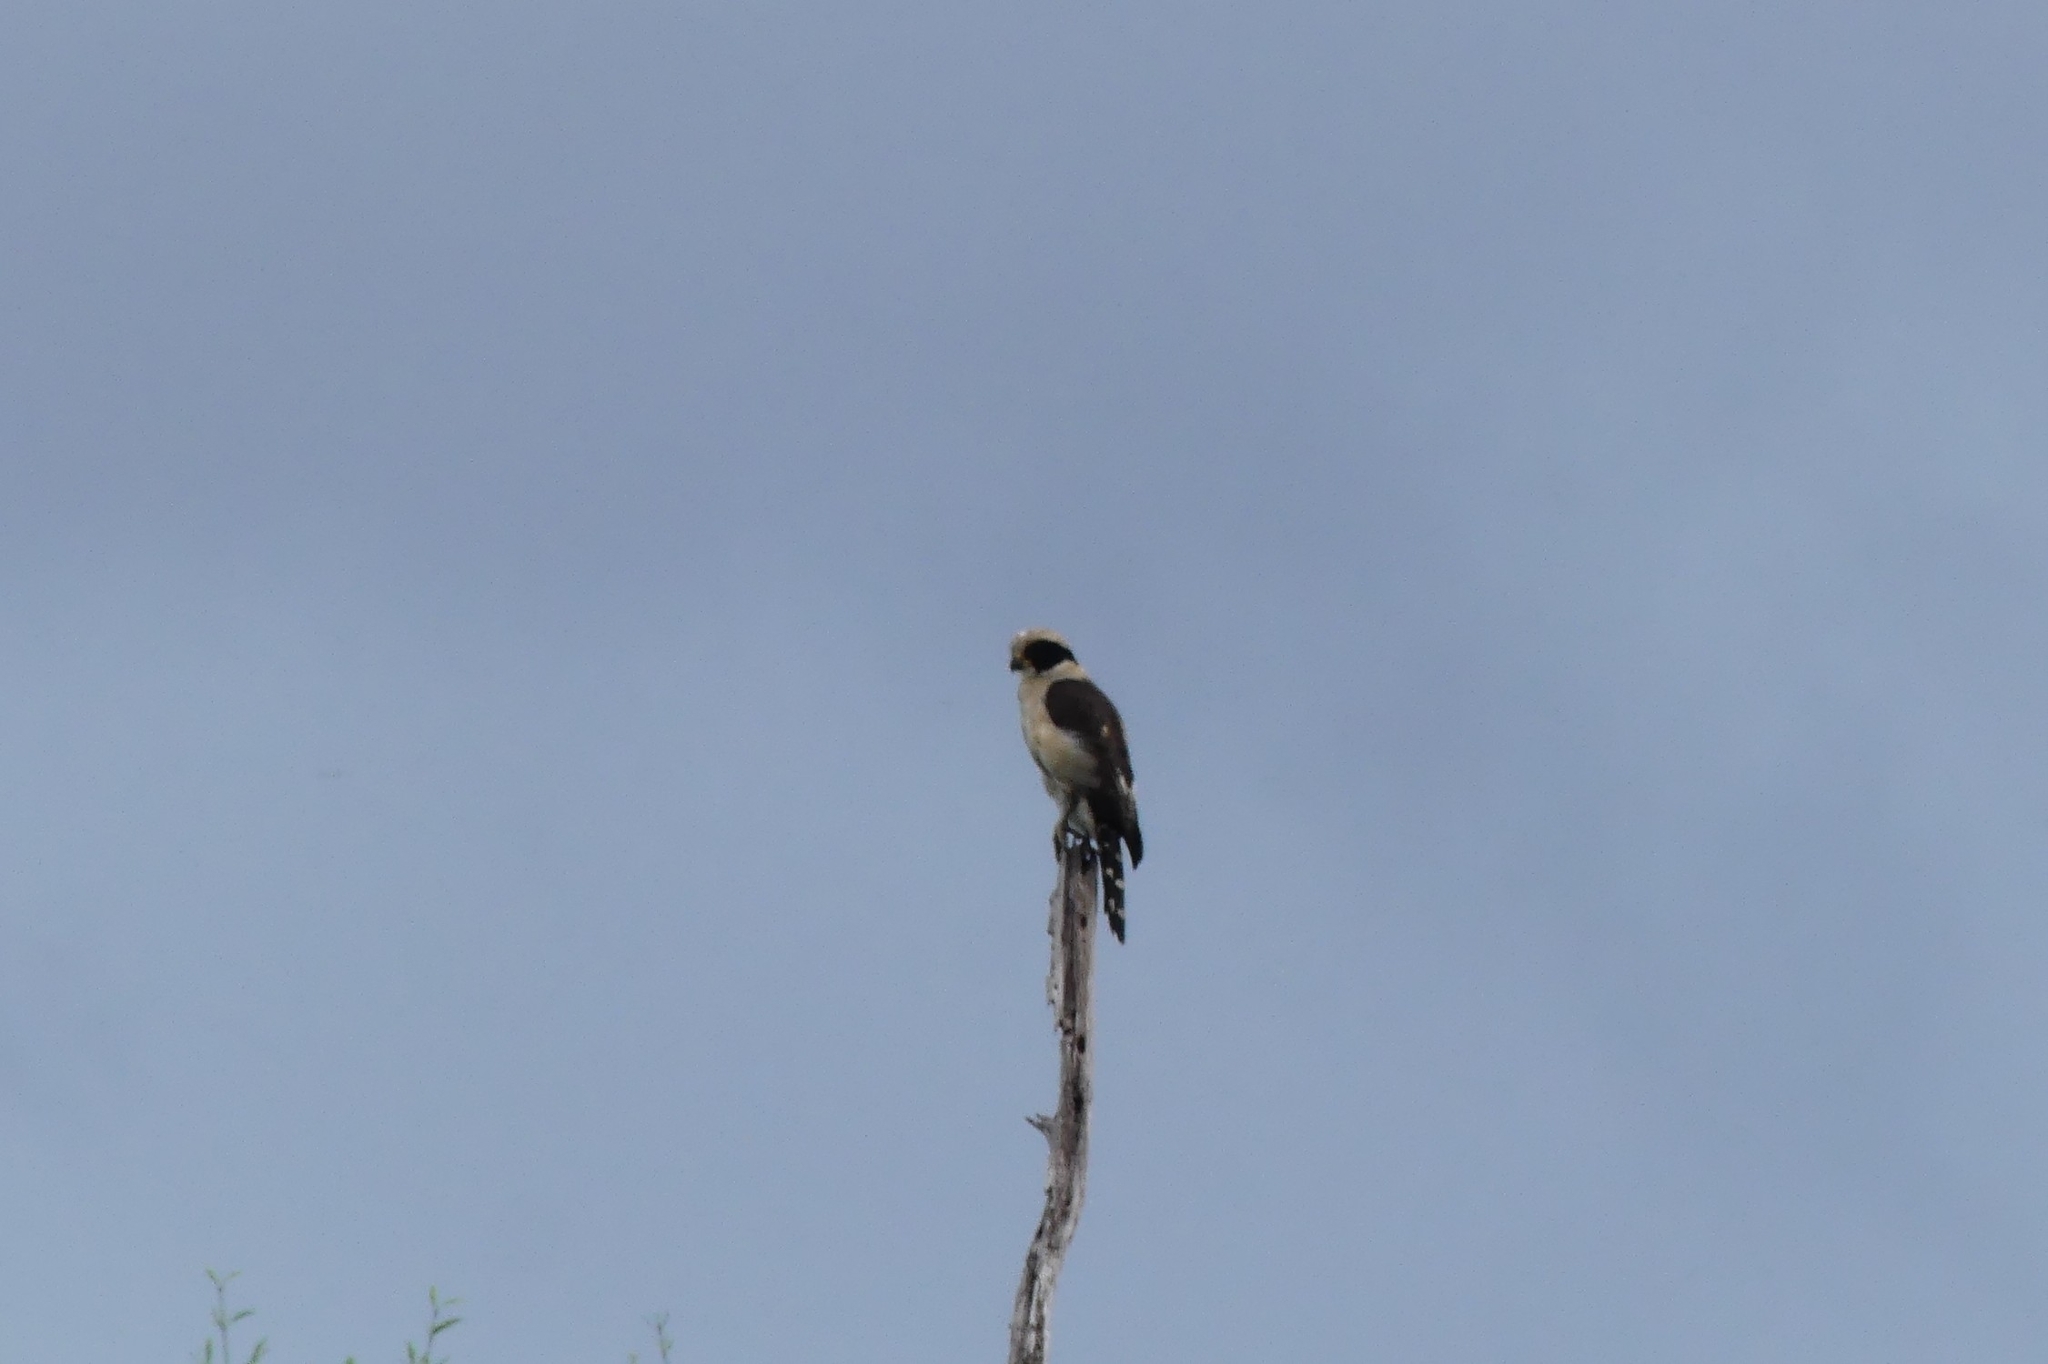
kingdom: Animalia
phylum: Chordata
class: Aves
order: Falconiformes
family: Falconidae
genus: Herpetotheres
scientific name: Herpetotheres cachinnans
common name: Laughing falcon
